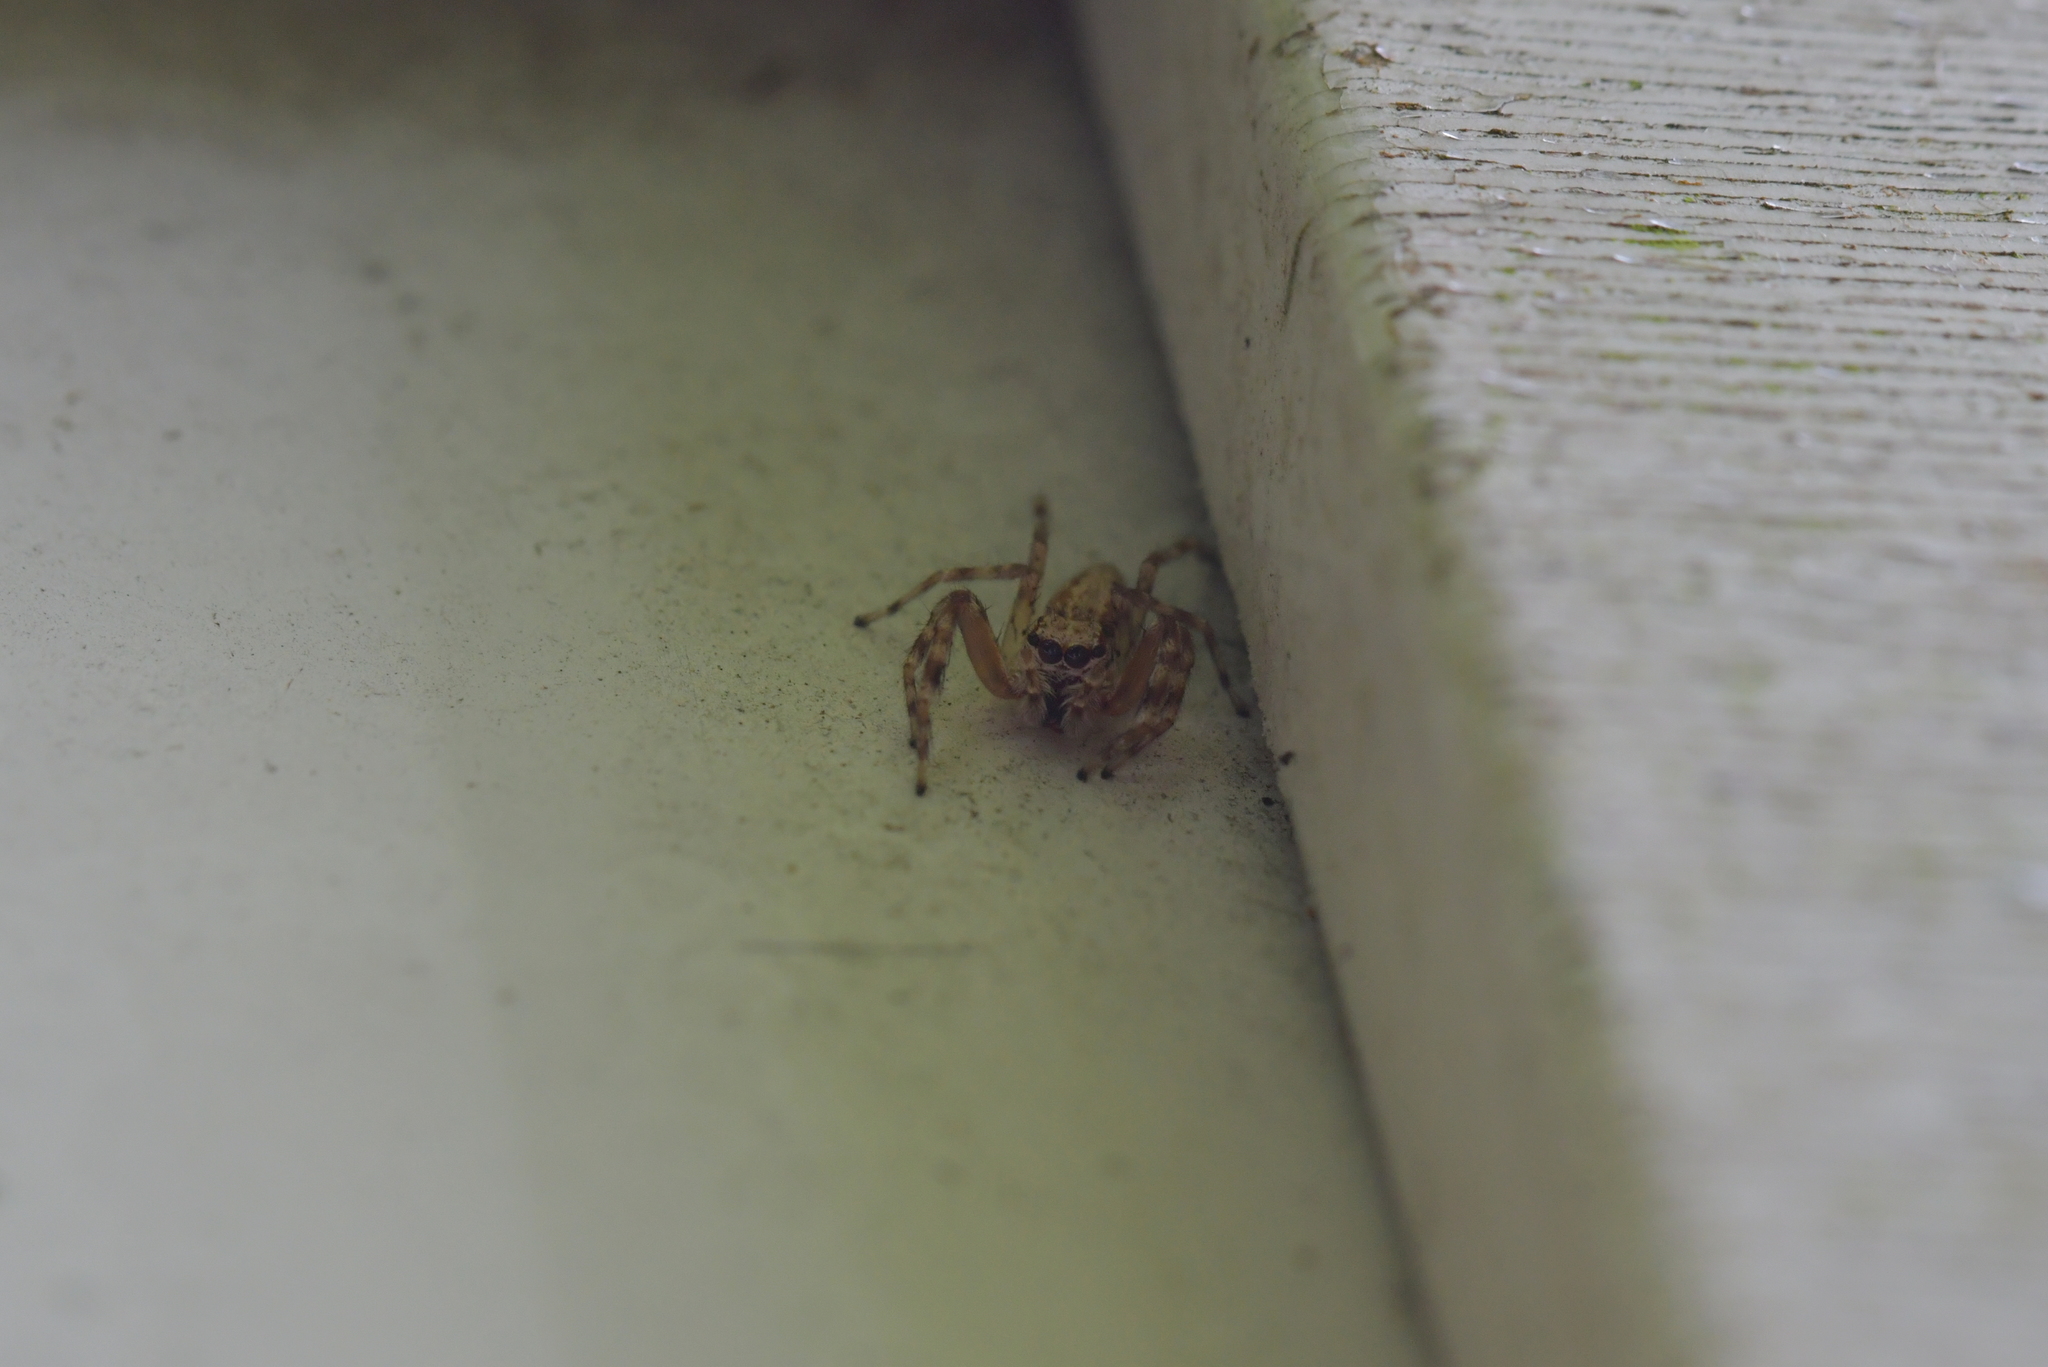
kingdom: Animalia
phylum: Arthropoda
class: Arachnida
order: Araneae
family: Salticidae
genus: Helpis
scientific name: Helpis minitabunda
